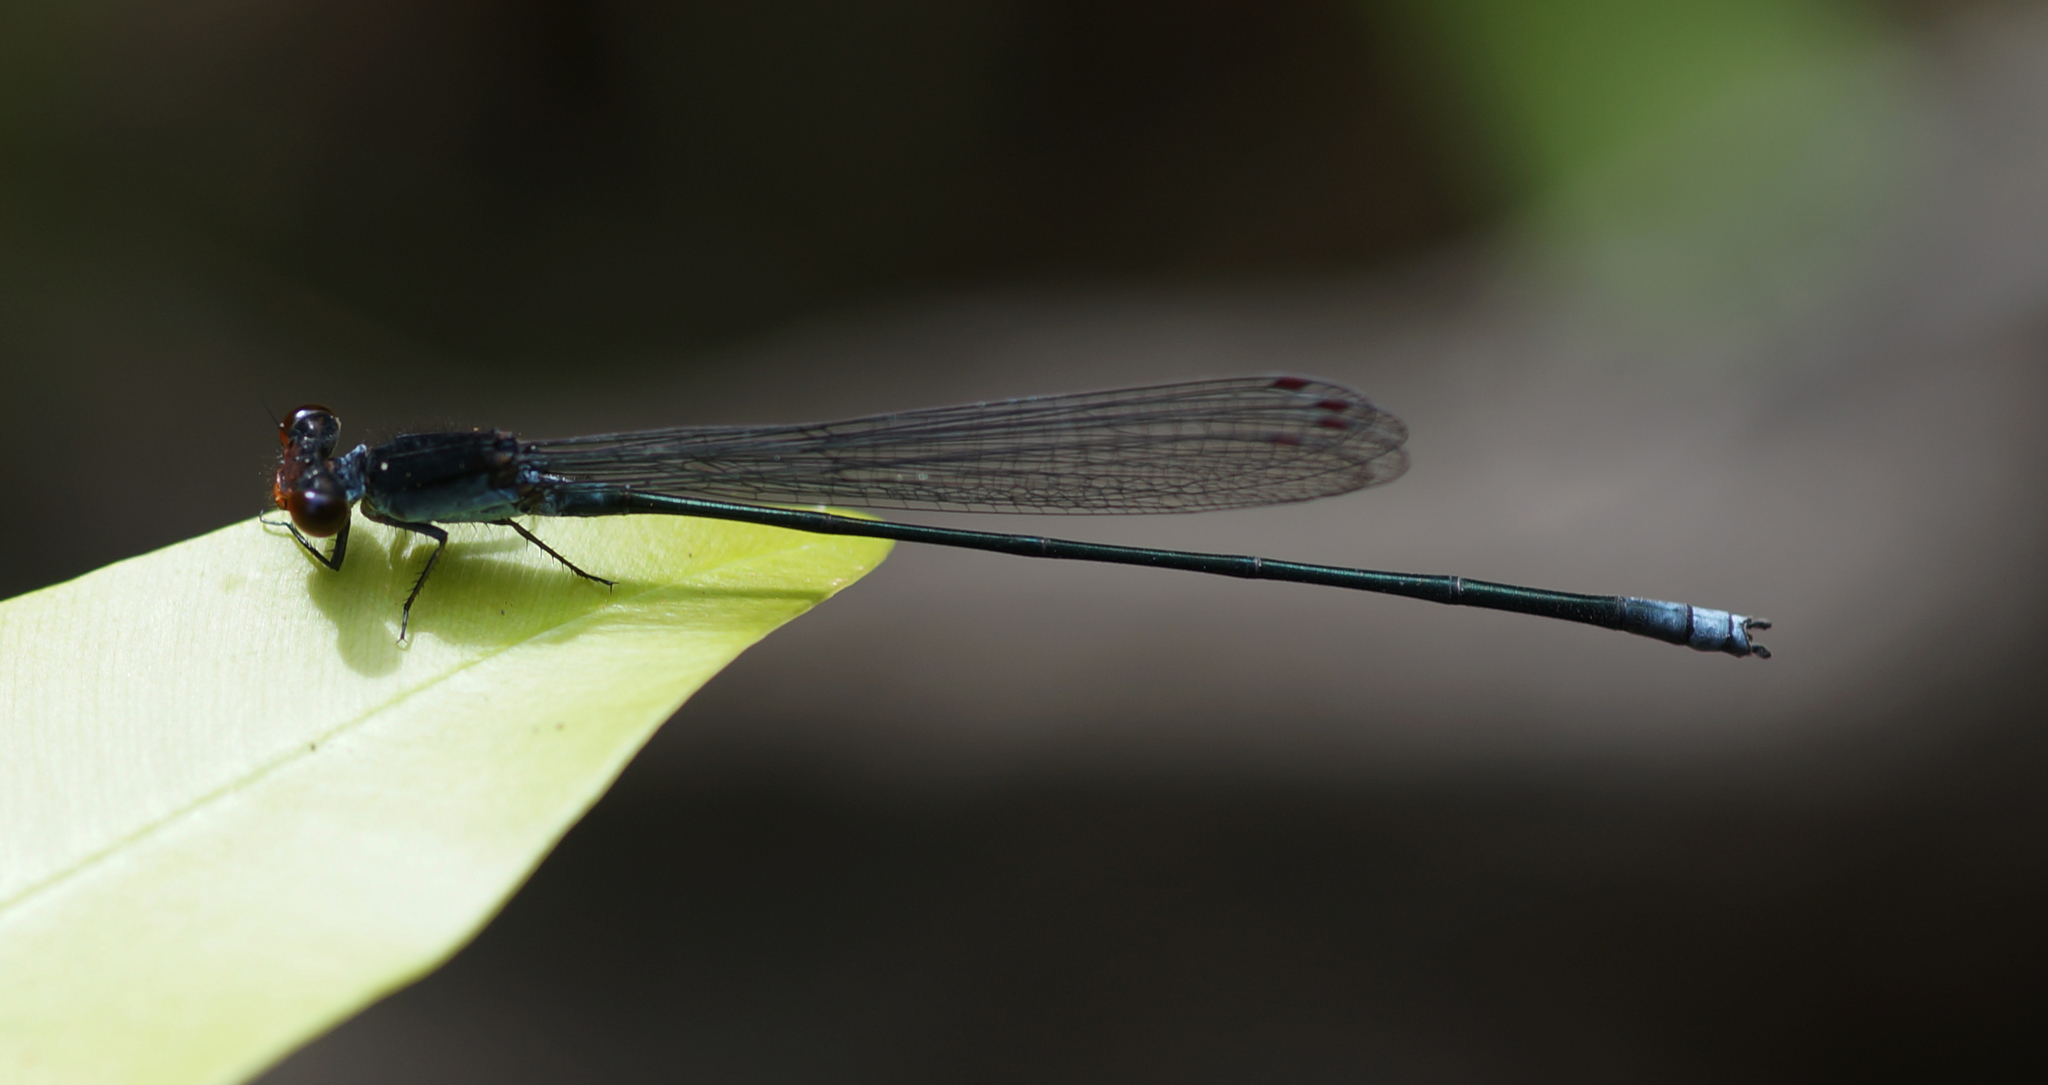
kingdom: Animalia
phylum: Arthropoda
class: Insecta
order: Odonata
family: Coenagrionidae
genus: Pseudagrion
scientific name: Pseudagrion pruinosum
